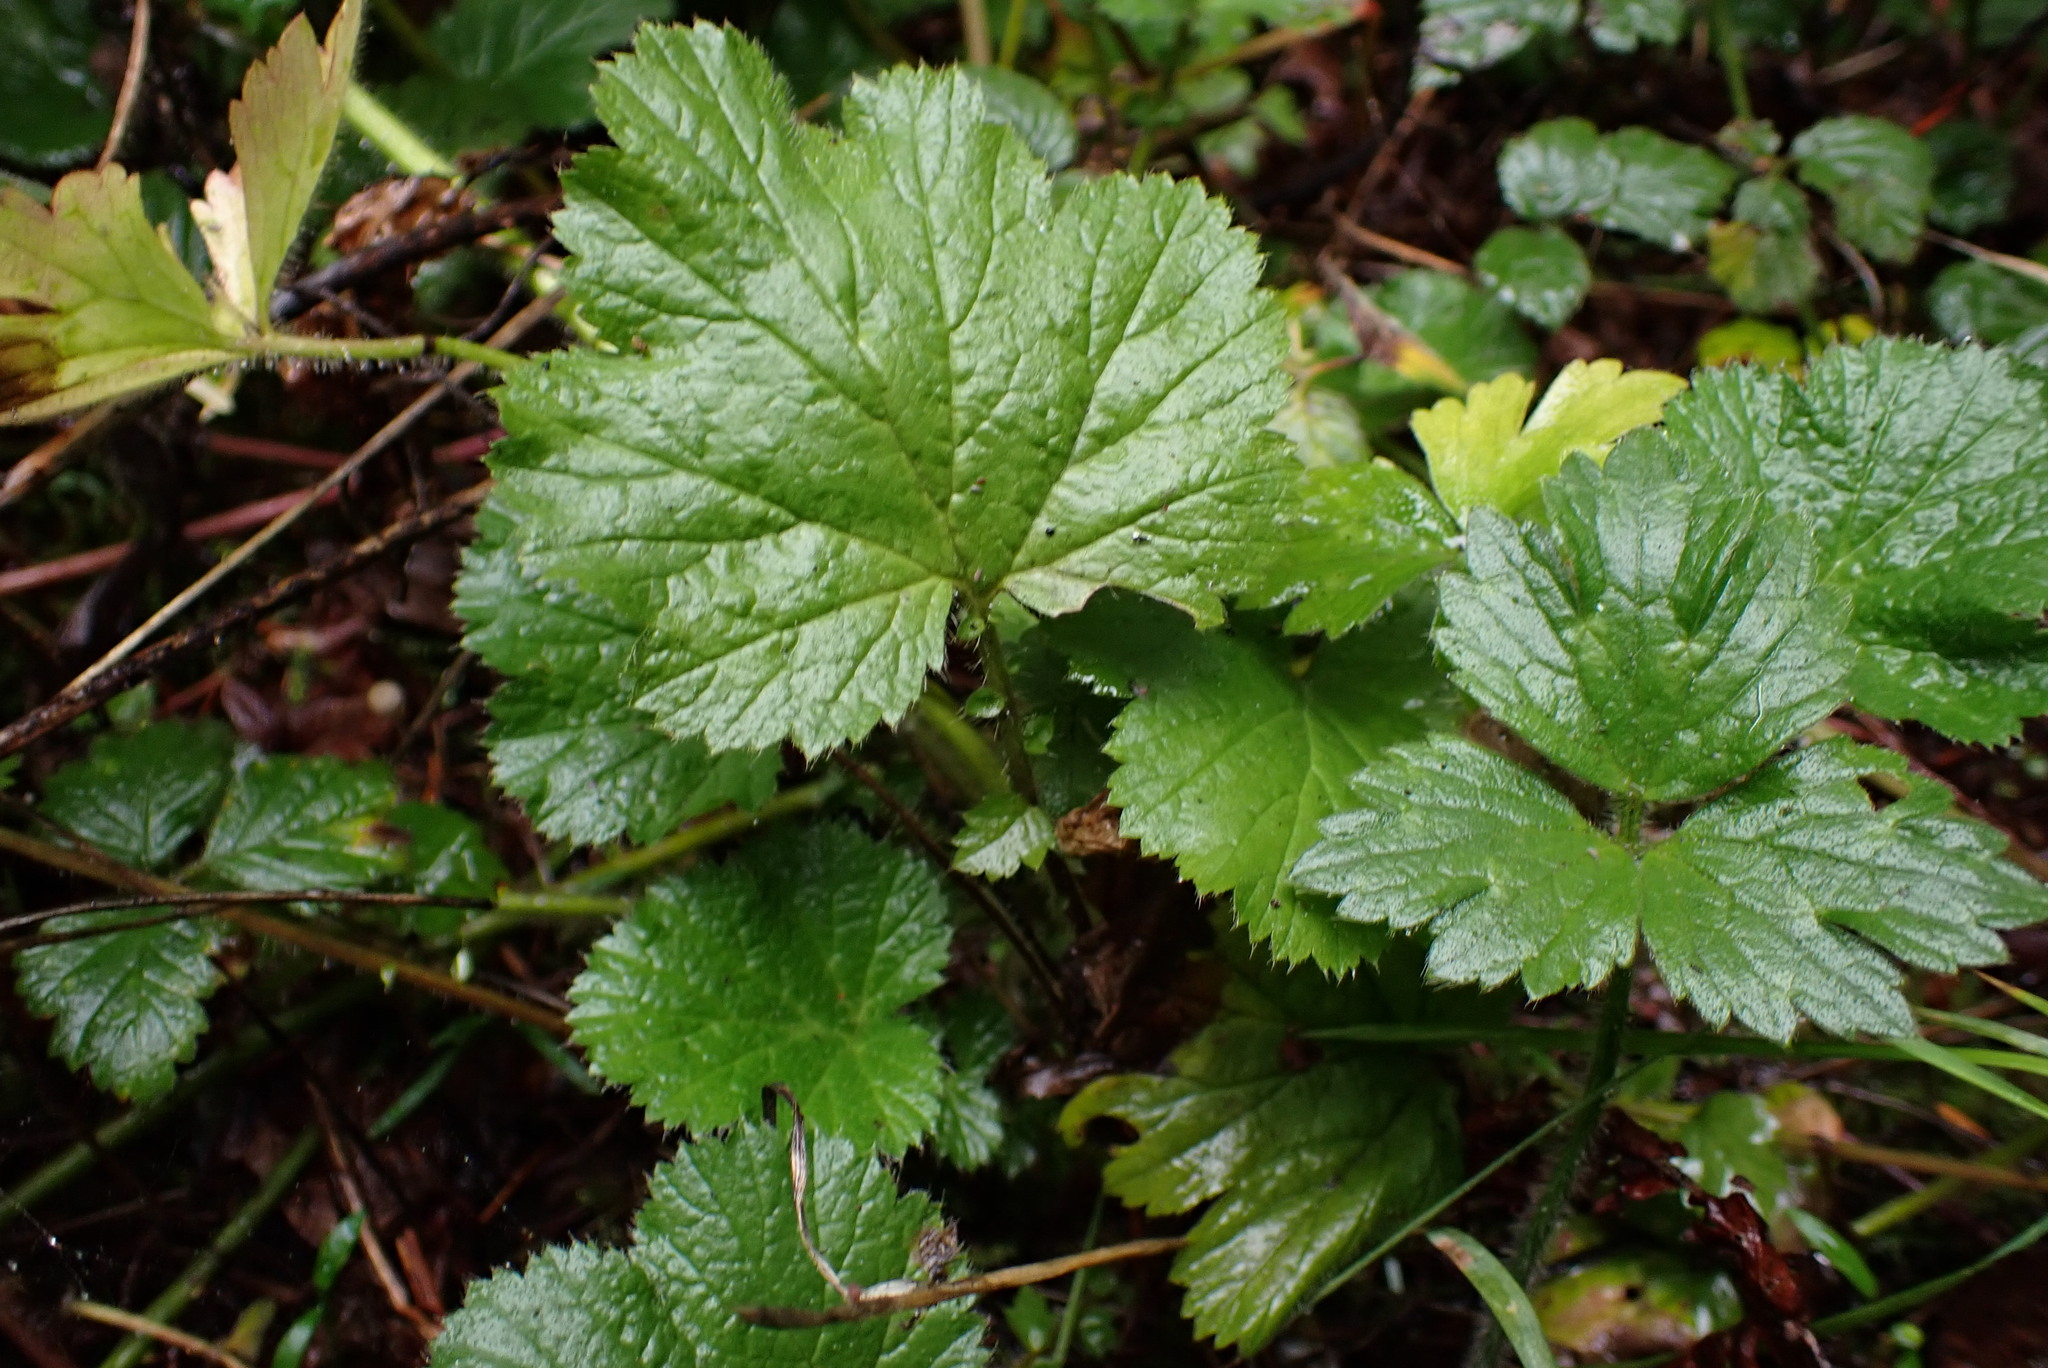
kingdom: Plantae
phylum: Tracheophyta
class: Magnoliopsida
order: Rosales
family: Rosaceae
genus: Geum
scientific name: Geum macrophyllum
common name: Large-leaved avens
